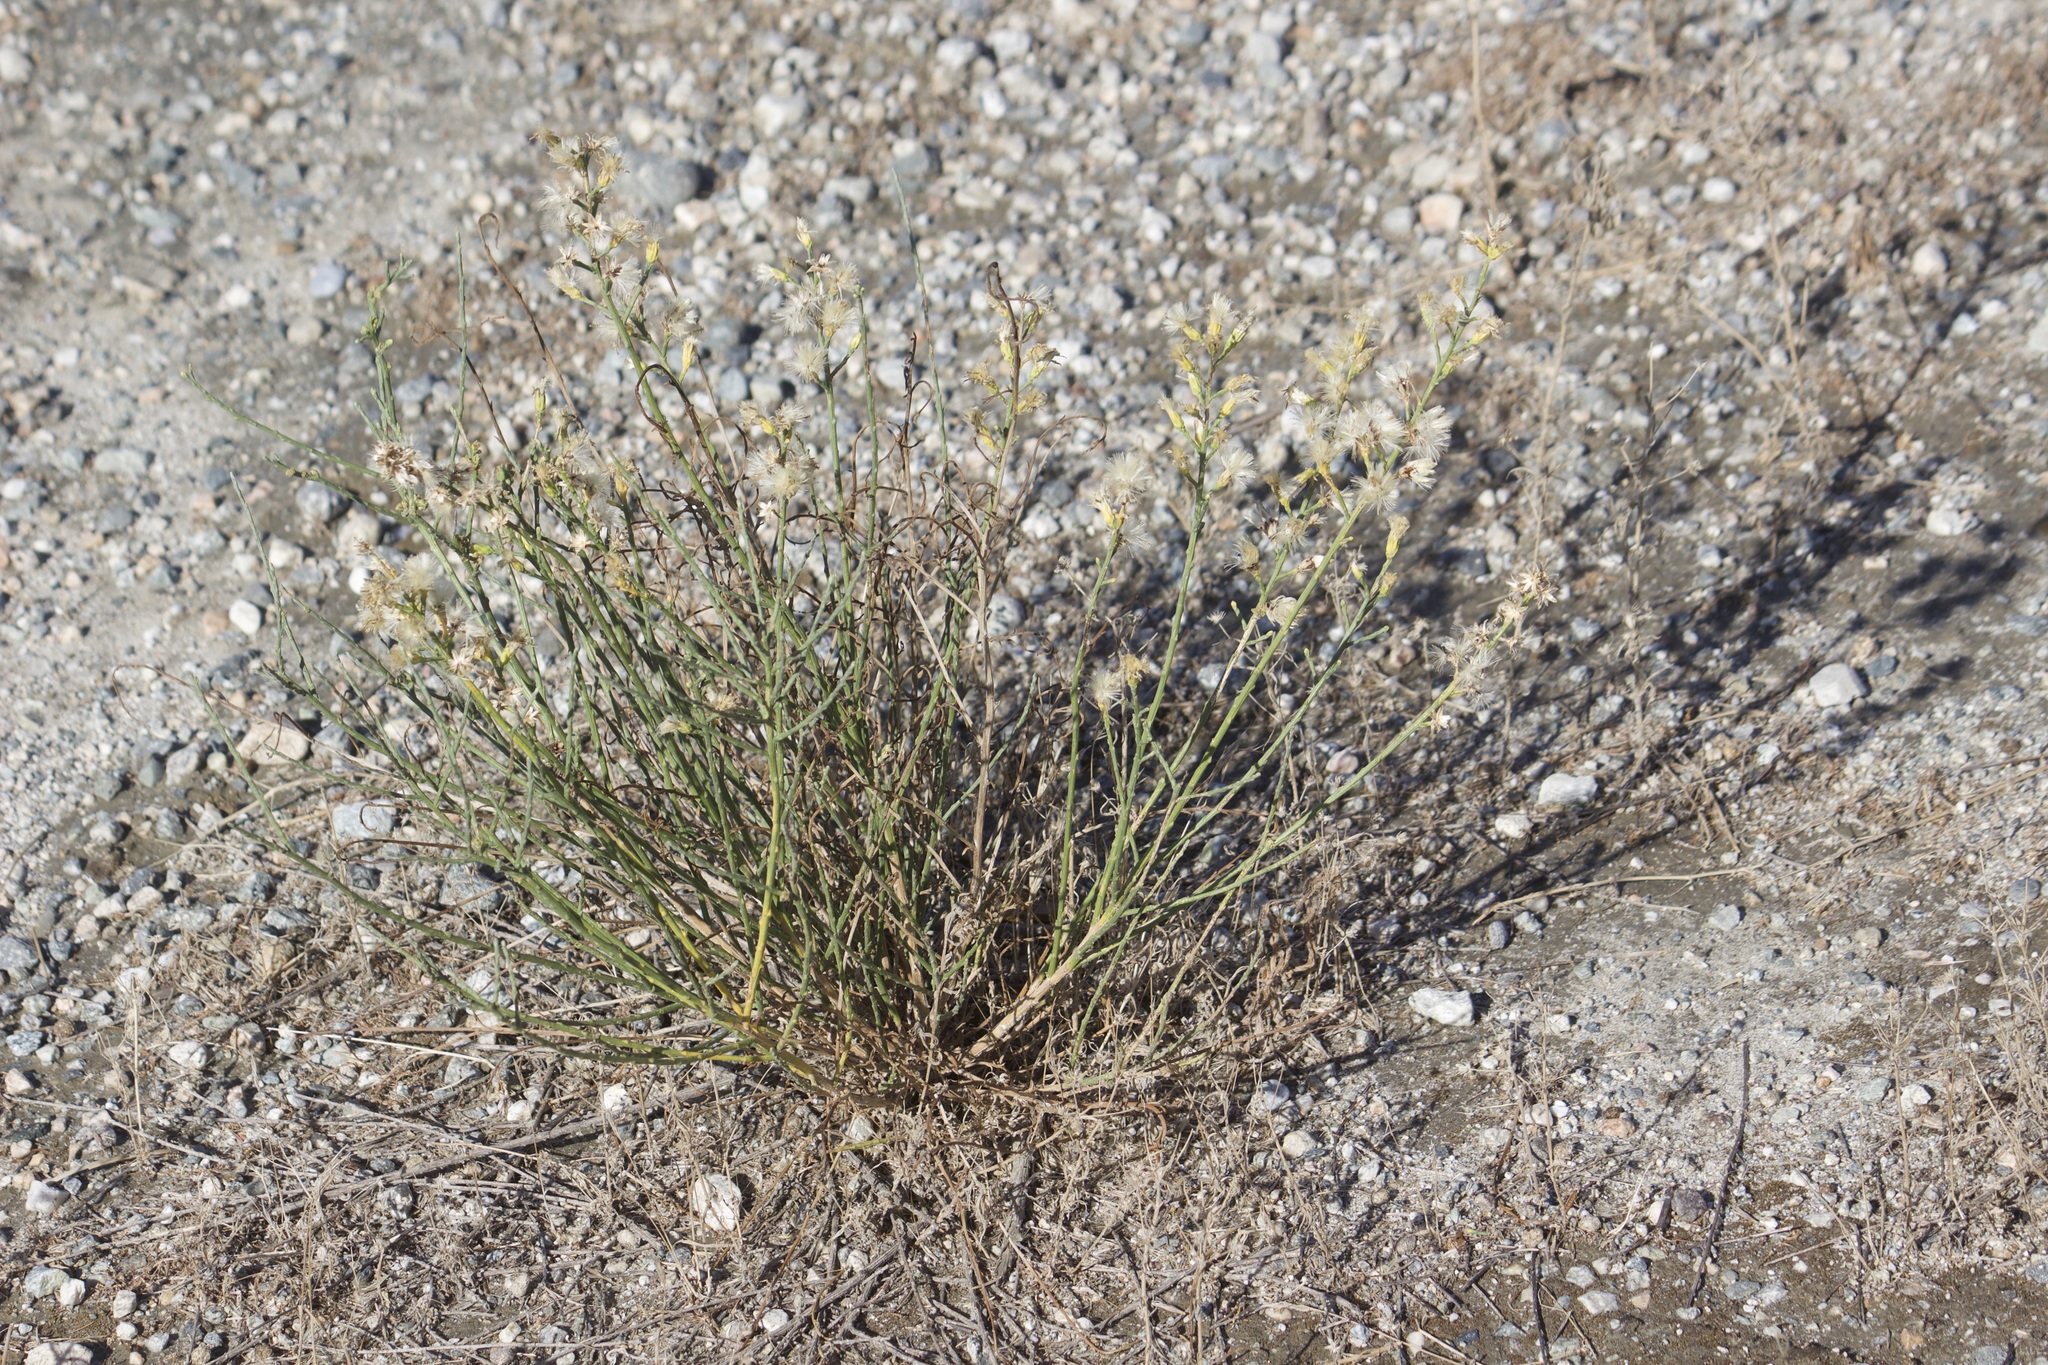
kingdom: Plantae
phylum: Tracheophyta
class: Magnoliopsida
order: Asterales
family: Asteraceae
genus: Lepidospartum
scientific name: Lepidospartum squamatum
